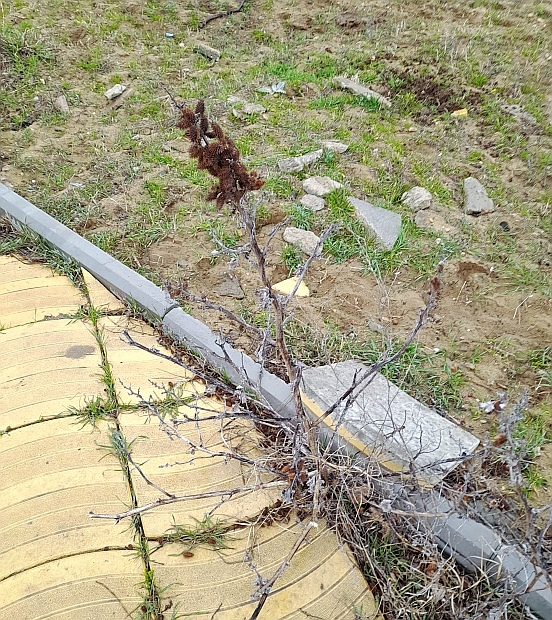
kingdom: Plantae
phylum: Tracheophyta
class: Magnoliopsida
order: Asterales
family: Asteraceae
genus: Xanthium
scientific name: Xanthium orientale
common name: Californian burr
